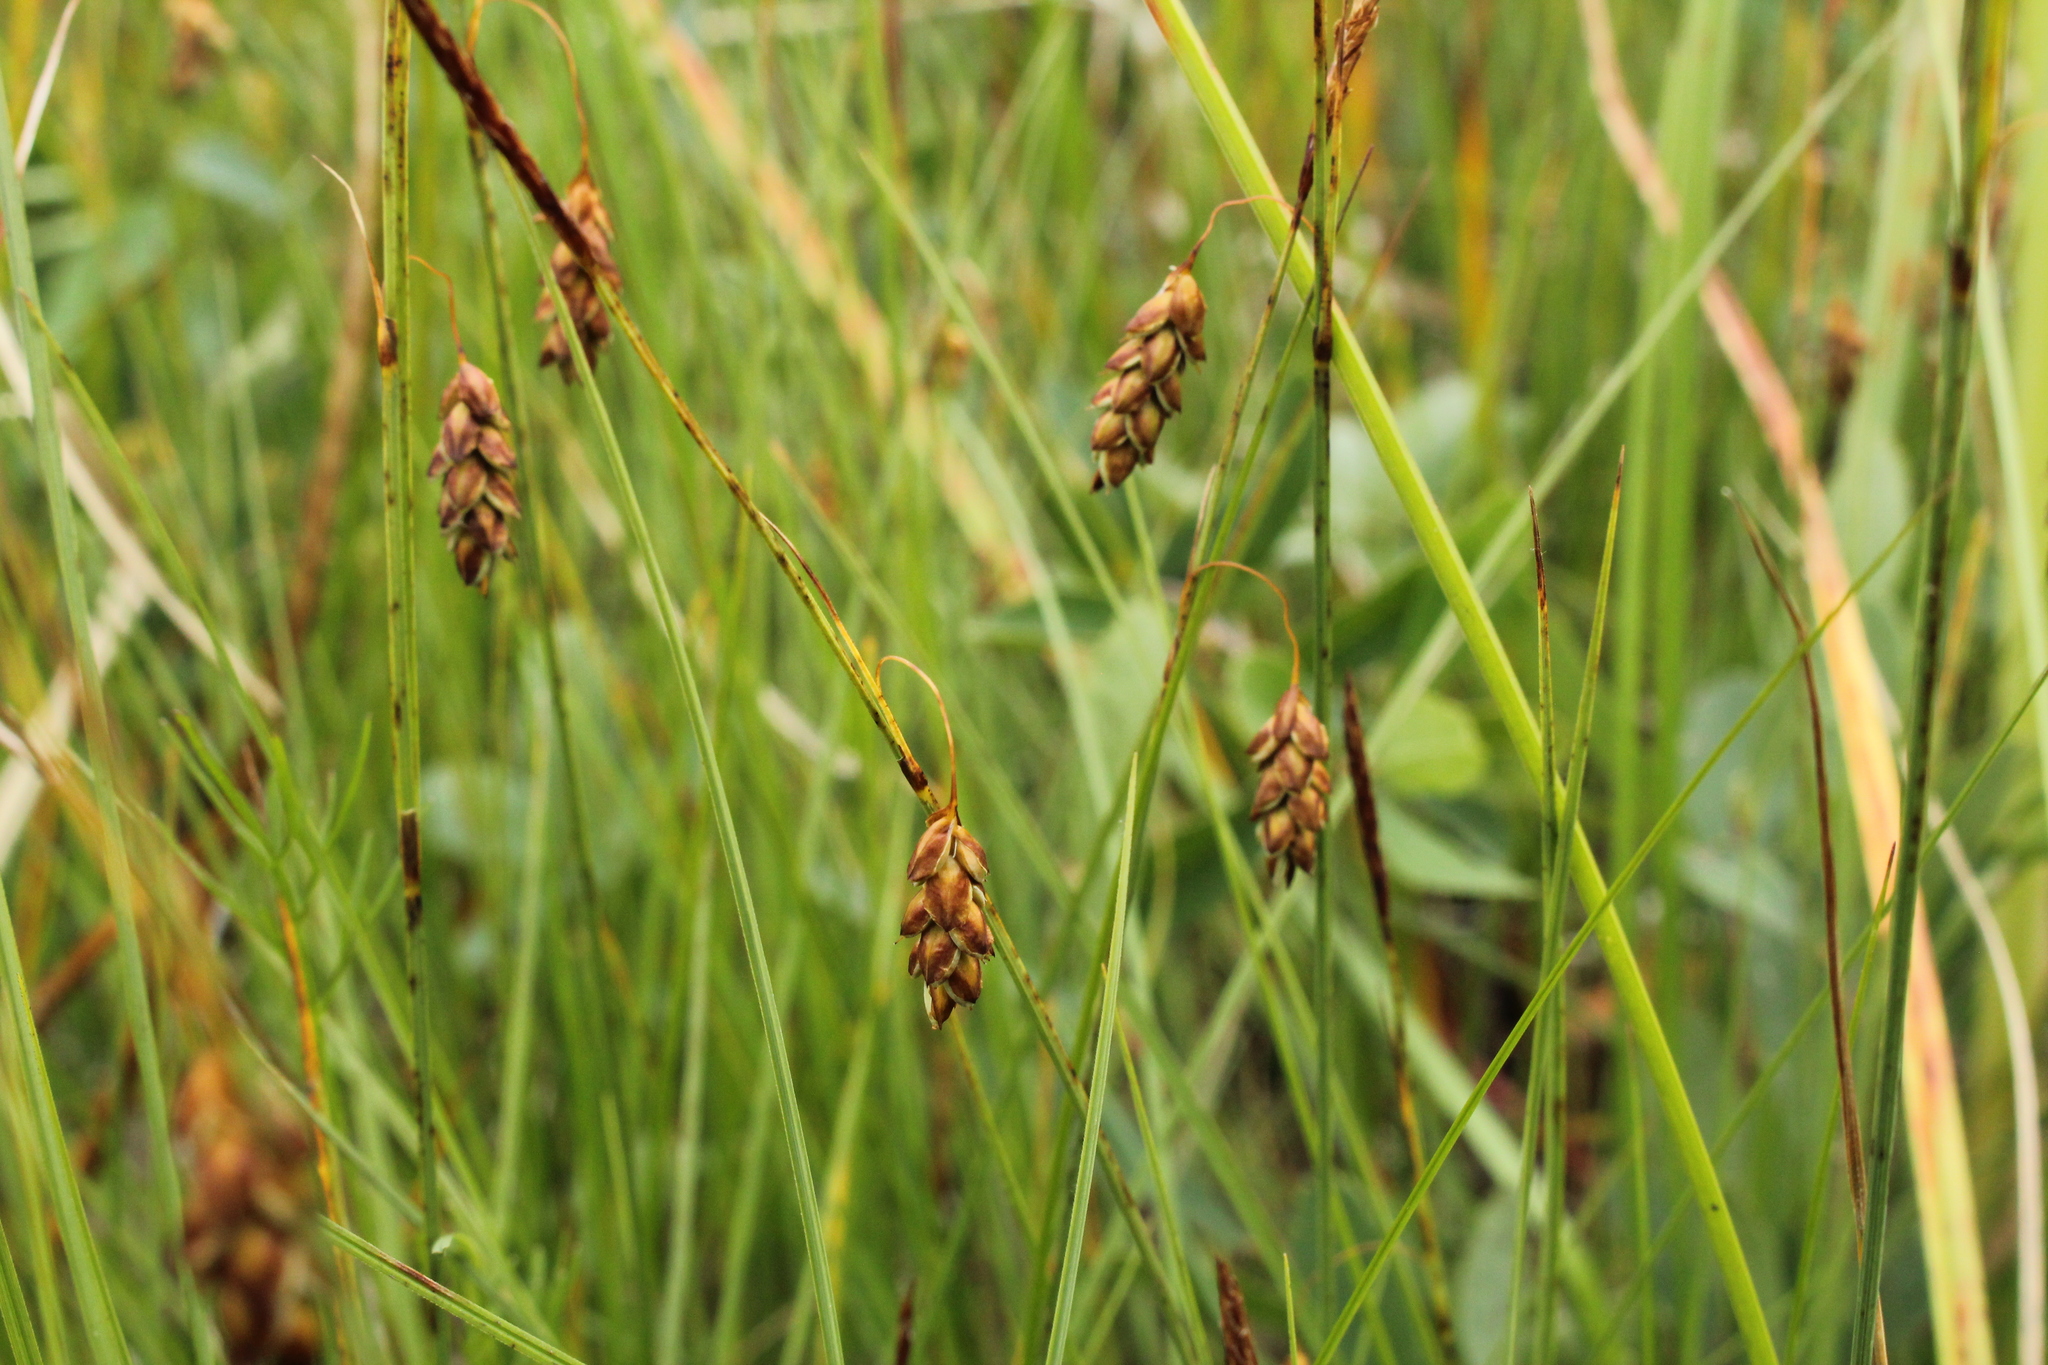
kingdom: Plantae
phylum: Tracheophyta
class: Liliopsida
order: Poales
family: Cyperaceae
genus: Carex
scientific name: Carex limosa
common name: Bog sedge
